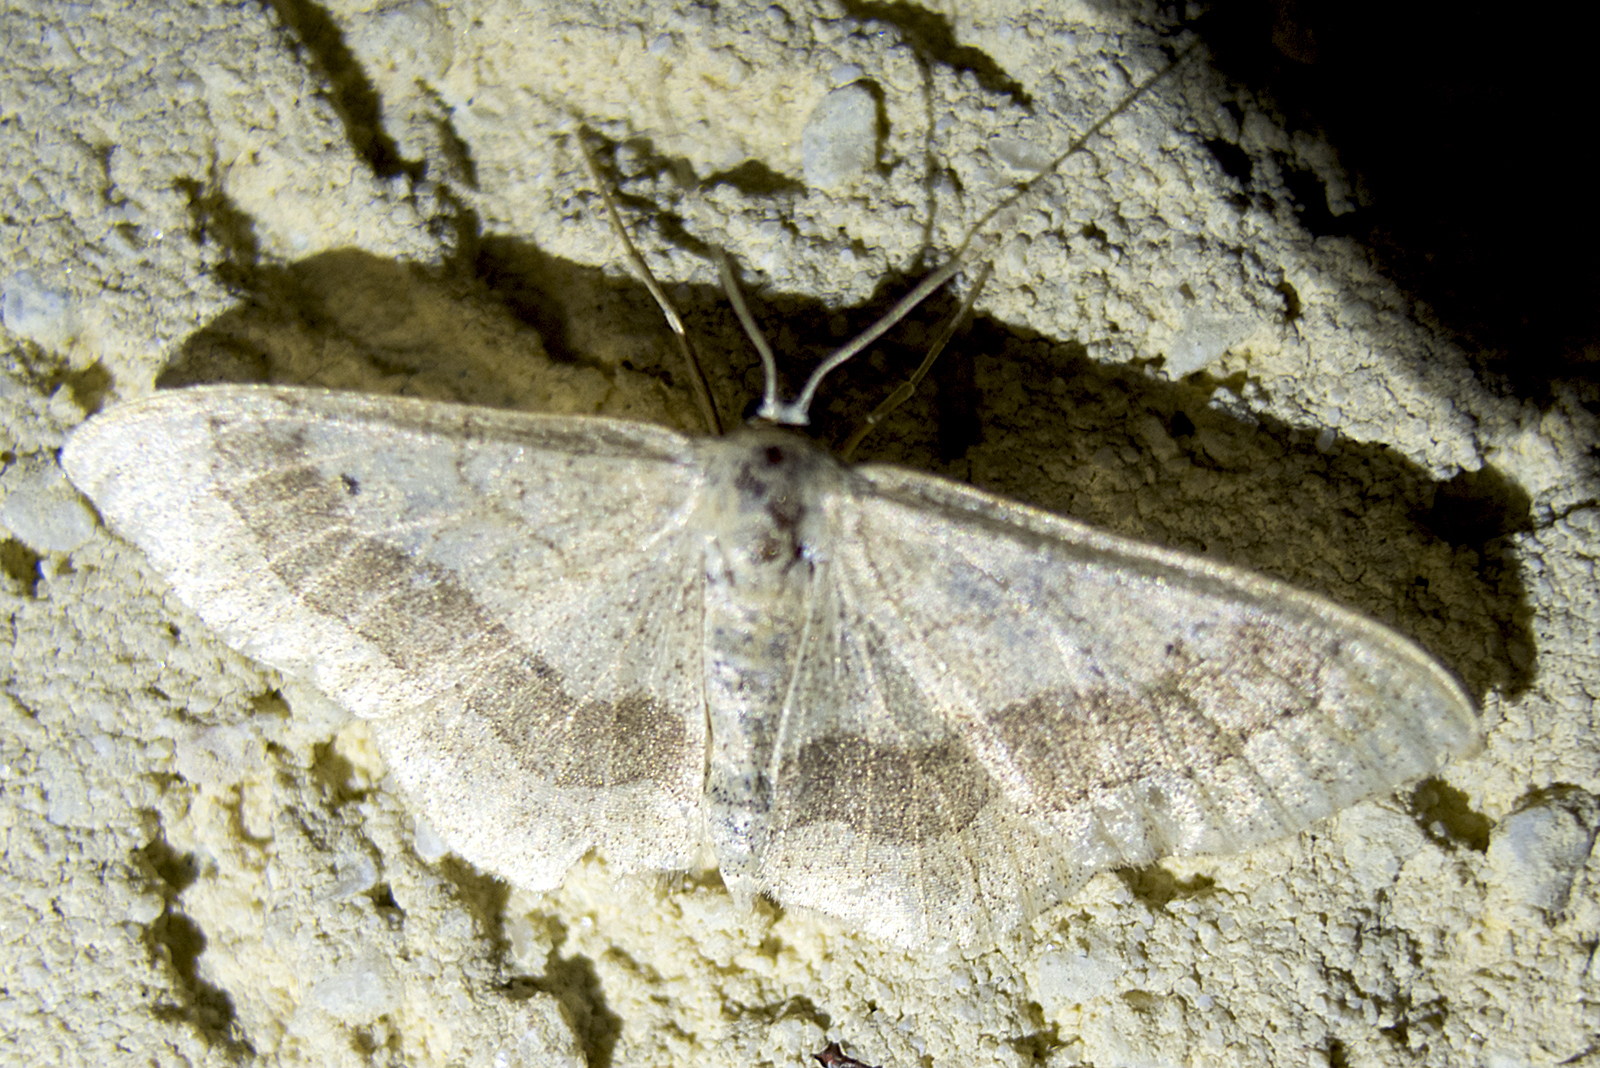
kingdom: Animalia
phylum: Arthropoda
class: Insecta
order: Lepidoptera
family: Geometridae
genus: Idaea
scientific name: Idaea aversata
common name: Riband wave
